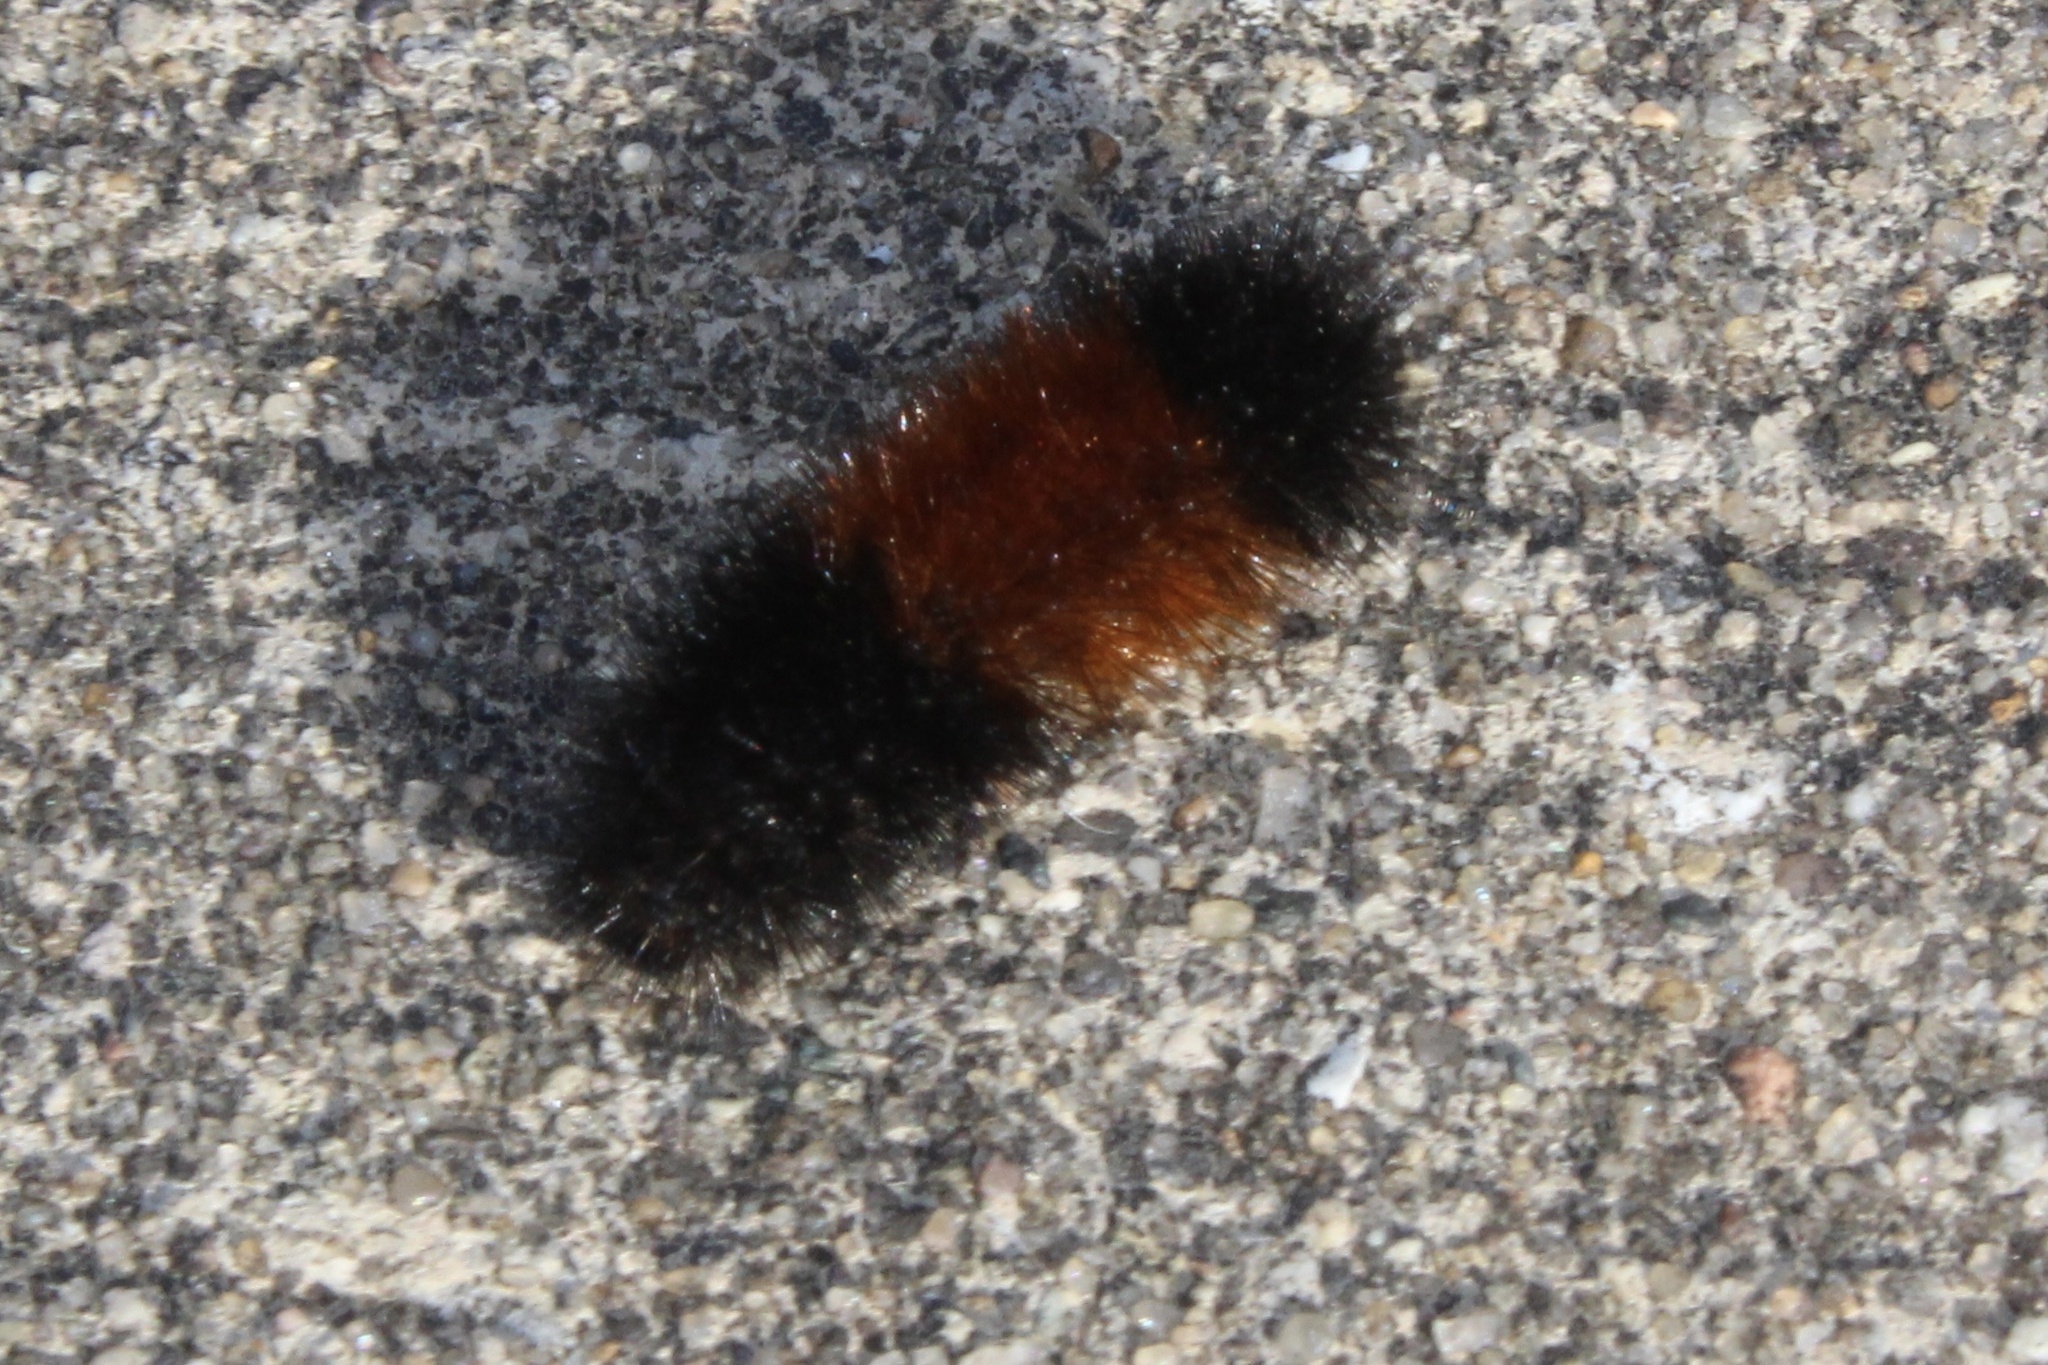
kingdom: Animalia
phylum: Arthropoda
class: Insecta
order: Lepidoptera
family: Erebidae
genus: Pyrrharctia
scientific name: Pyrrharctia isabella
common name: Isabella tiger moth
